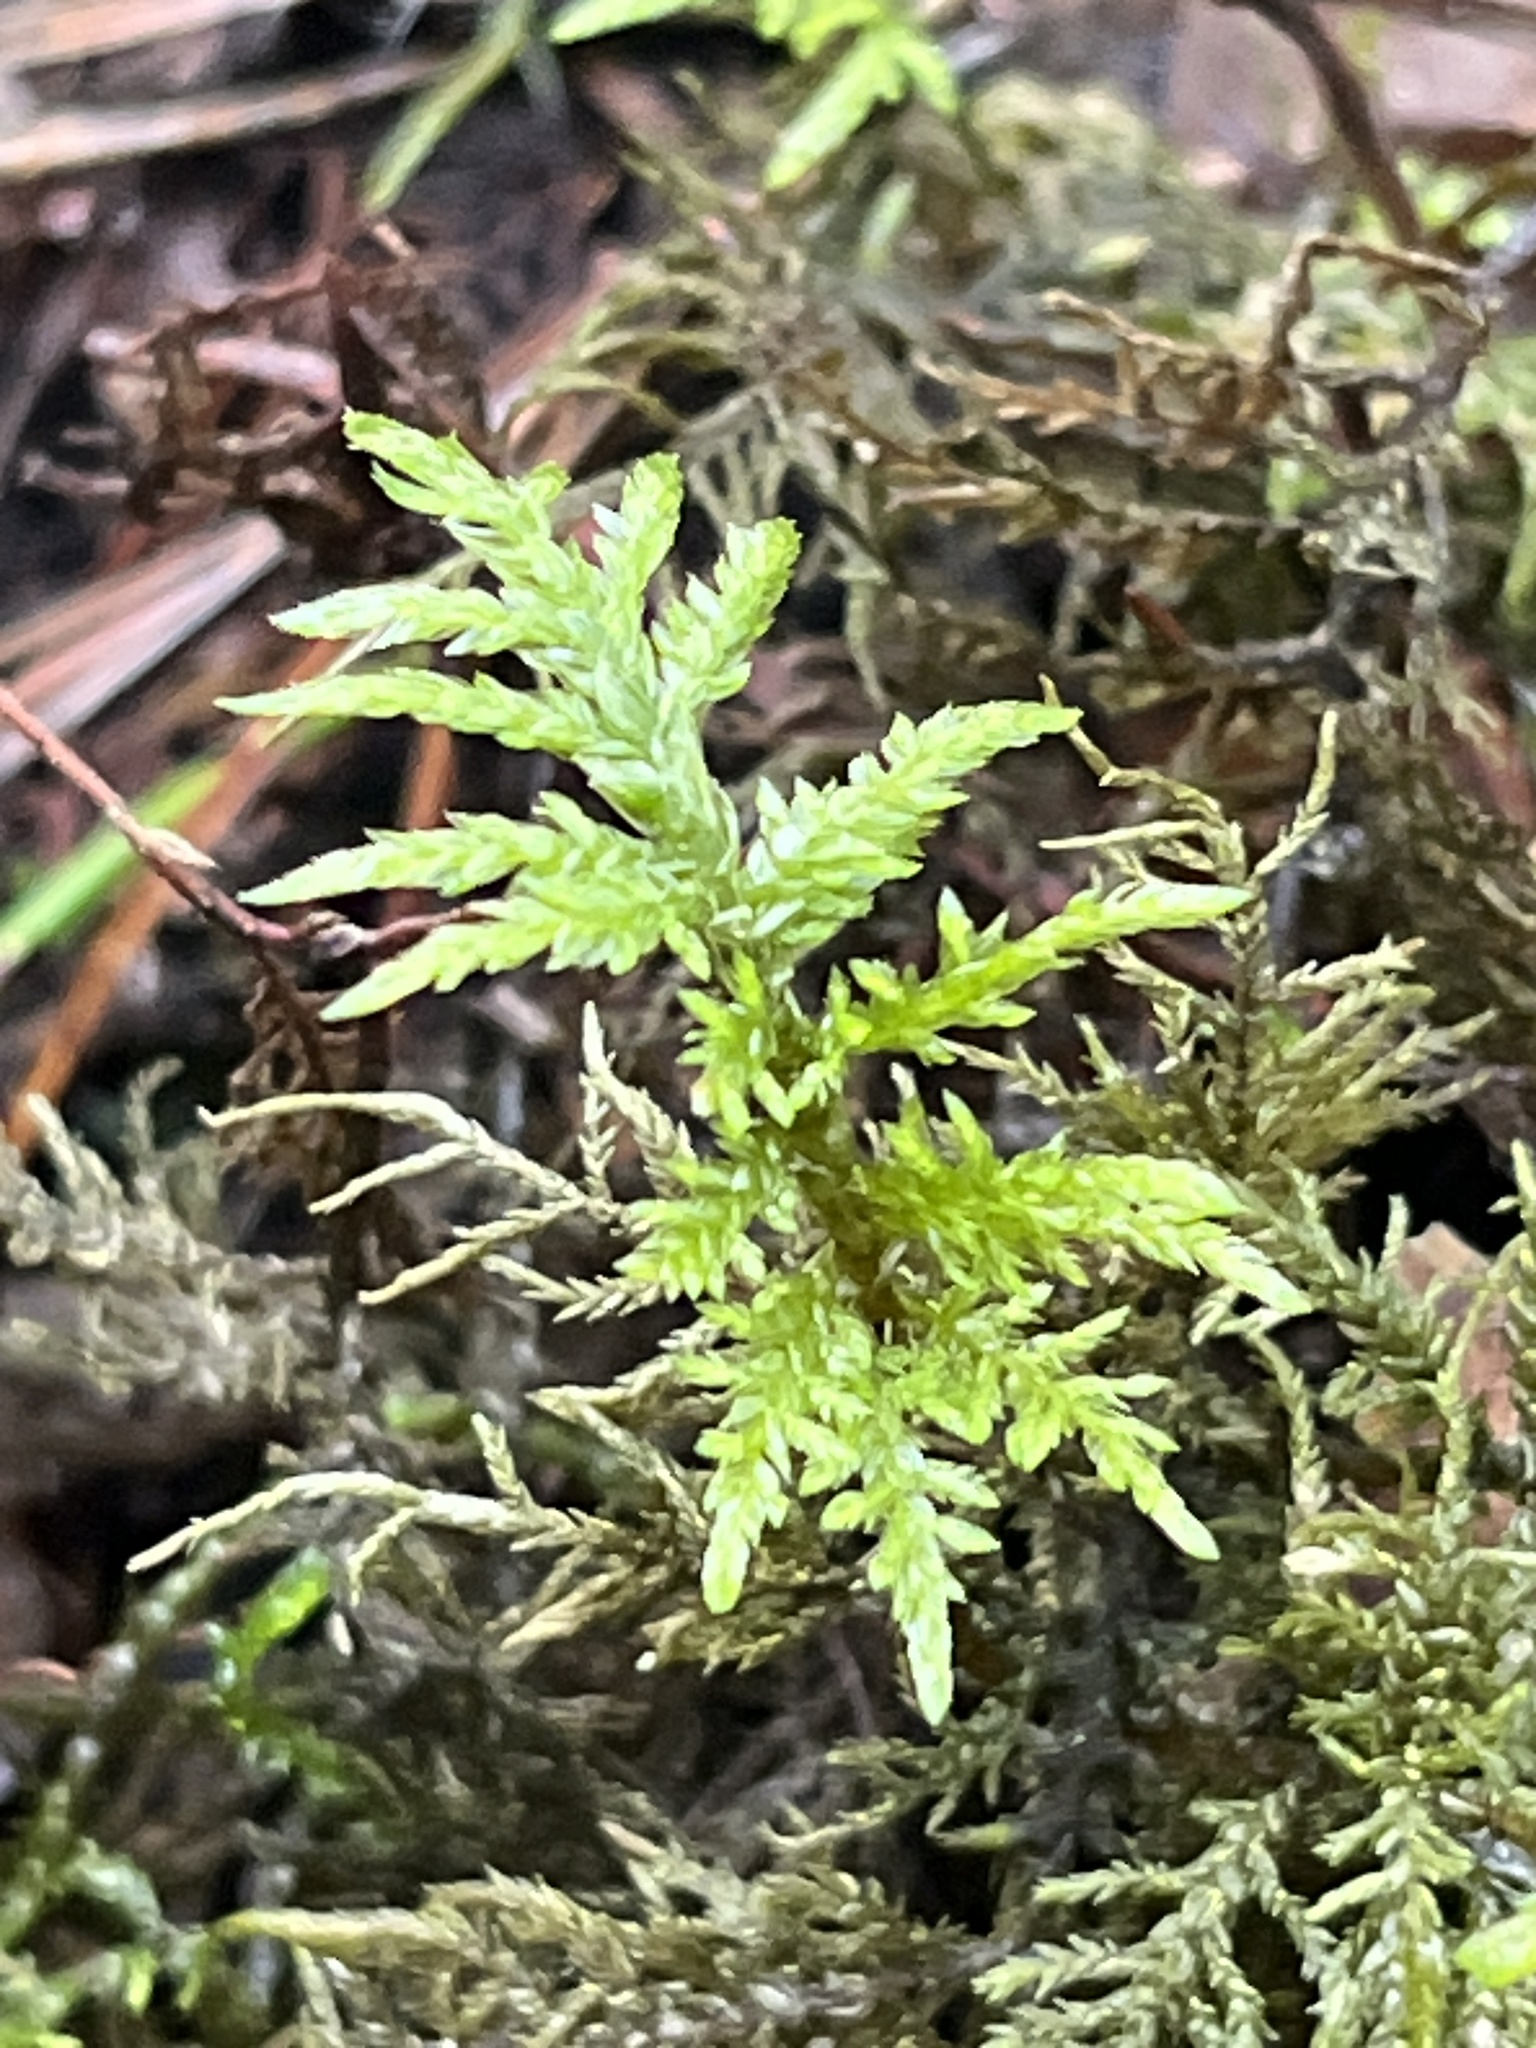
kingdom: Plantae
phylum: Bryophyta
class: Bryopsida
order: Hypnales
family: Hylocomiaceae
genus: Hylocomium
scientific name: Hylocomium splendens
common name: Stairstep moss
